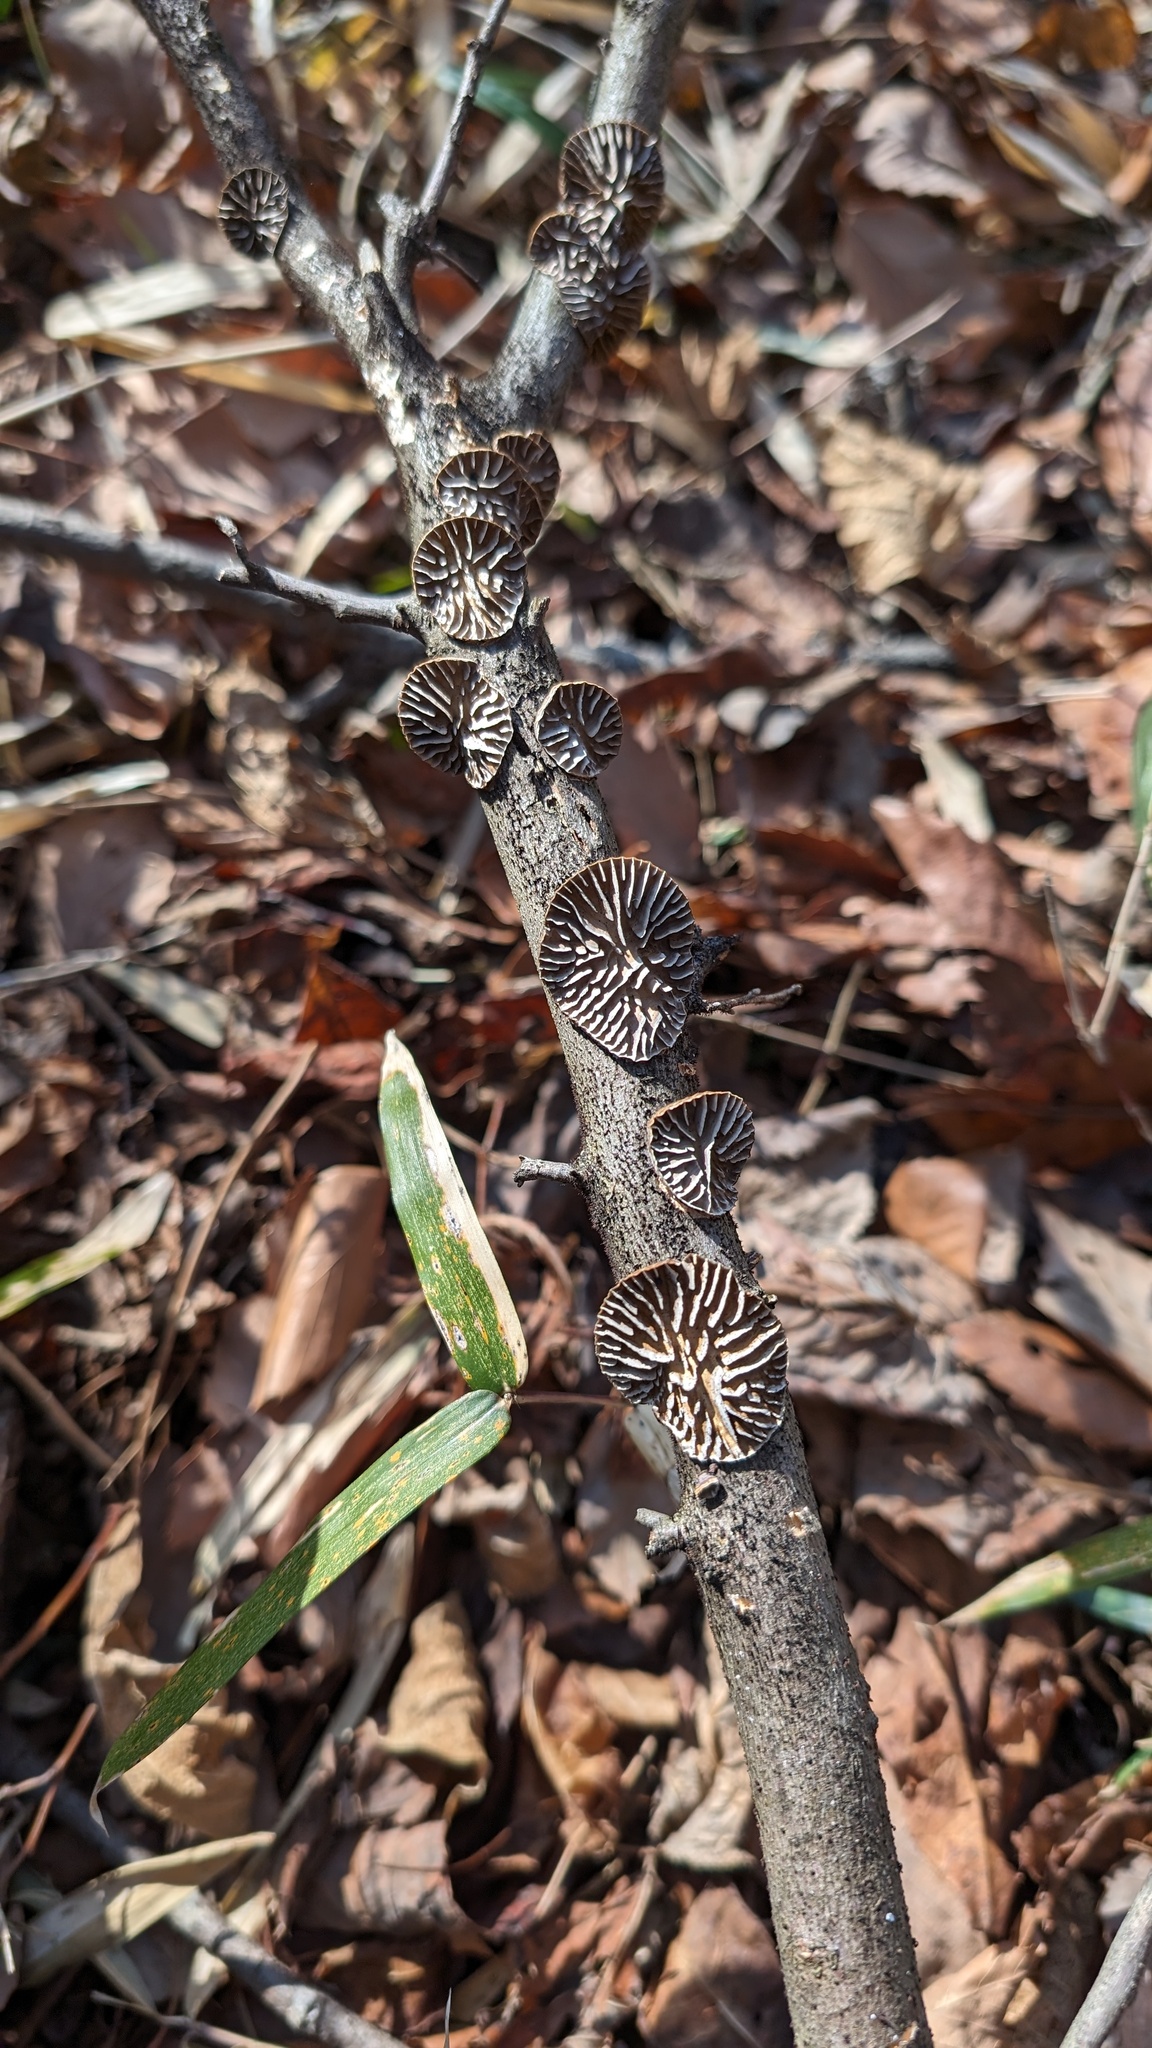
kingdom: Fungi
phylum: Basidiomycota
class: Agaricomycetes
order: Polyporales
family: Polyporaceae
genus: Lenzites
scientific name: Lenzites styracinus
